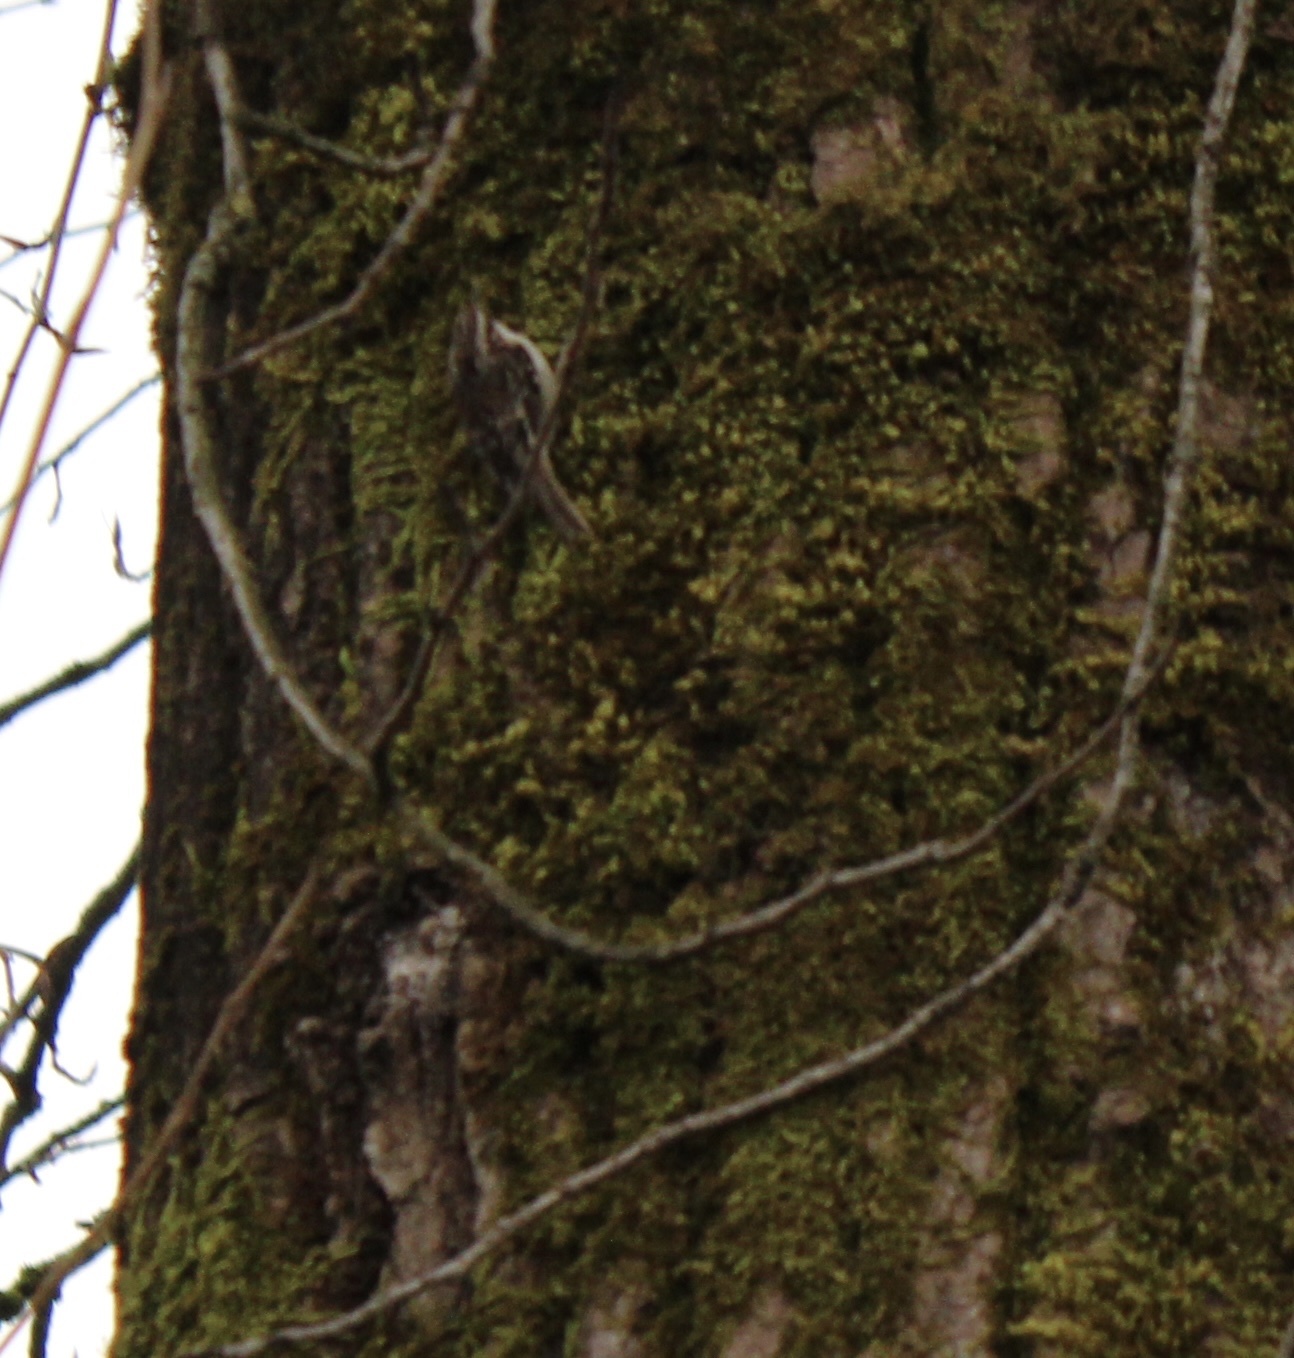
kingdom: Animalia
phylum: Chordata
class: Aves
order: Passeriformes
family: Certhiidae
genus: Certhia
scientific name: Certhia americana
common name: Brown creeper
